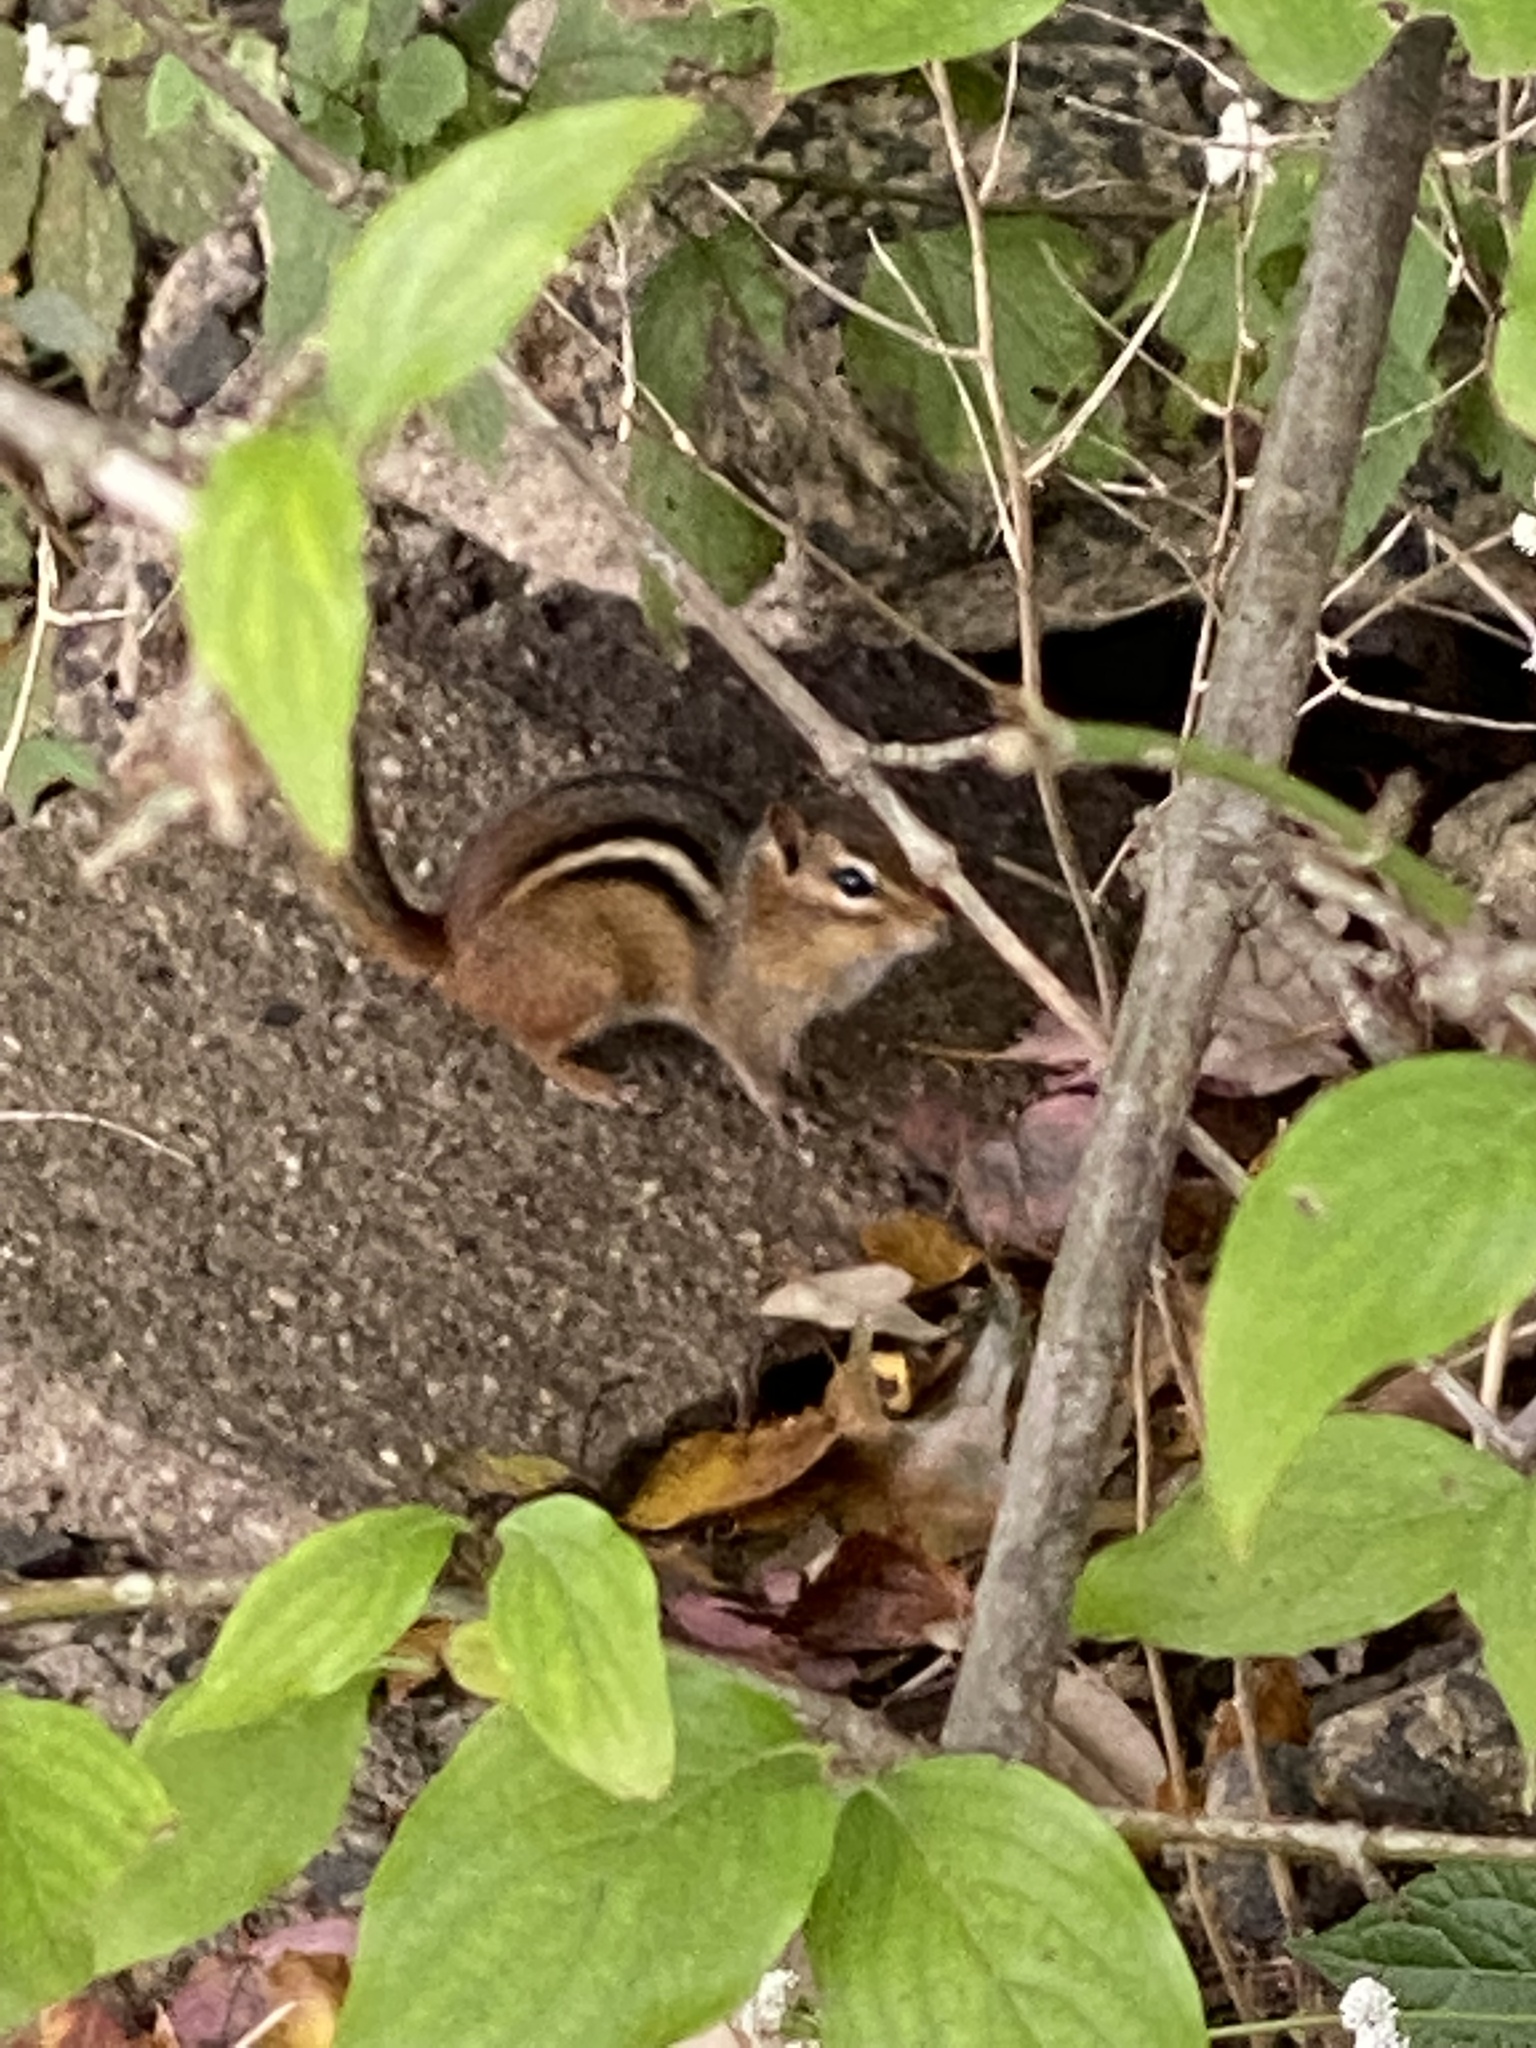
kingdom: Animalia
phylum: Chordata
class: Mammalia
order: Rodentia
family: Sciuridae
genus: Tamias
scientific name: Tamias striatus
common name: Eastern chipmunk
